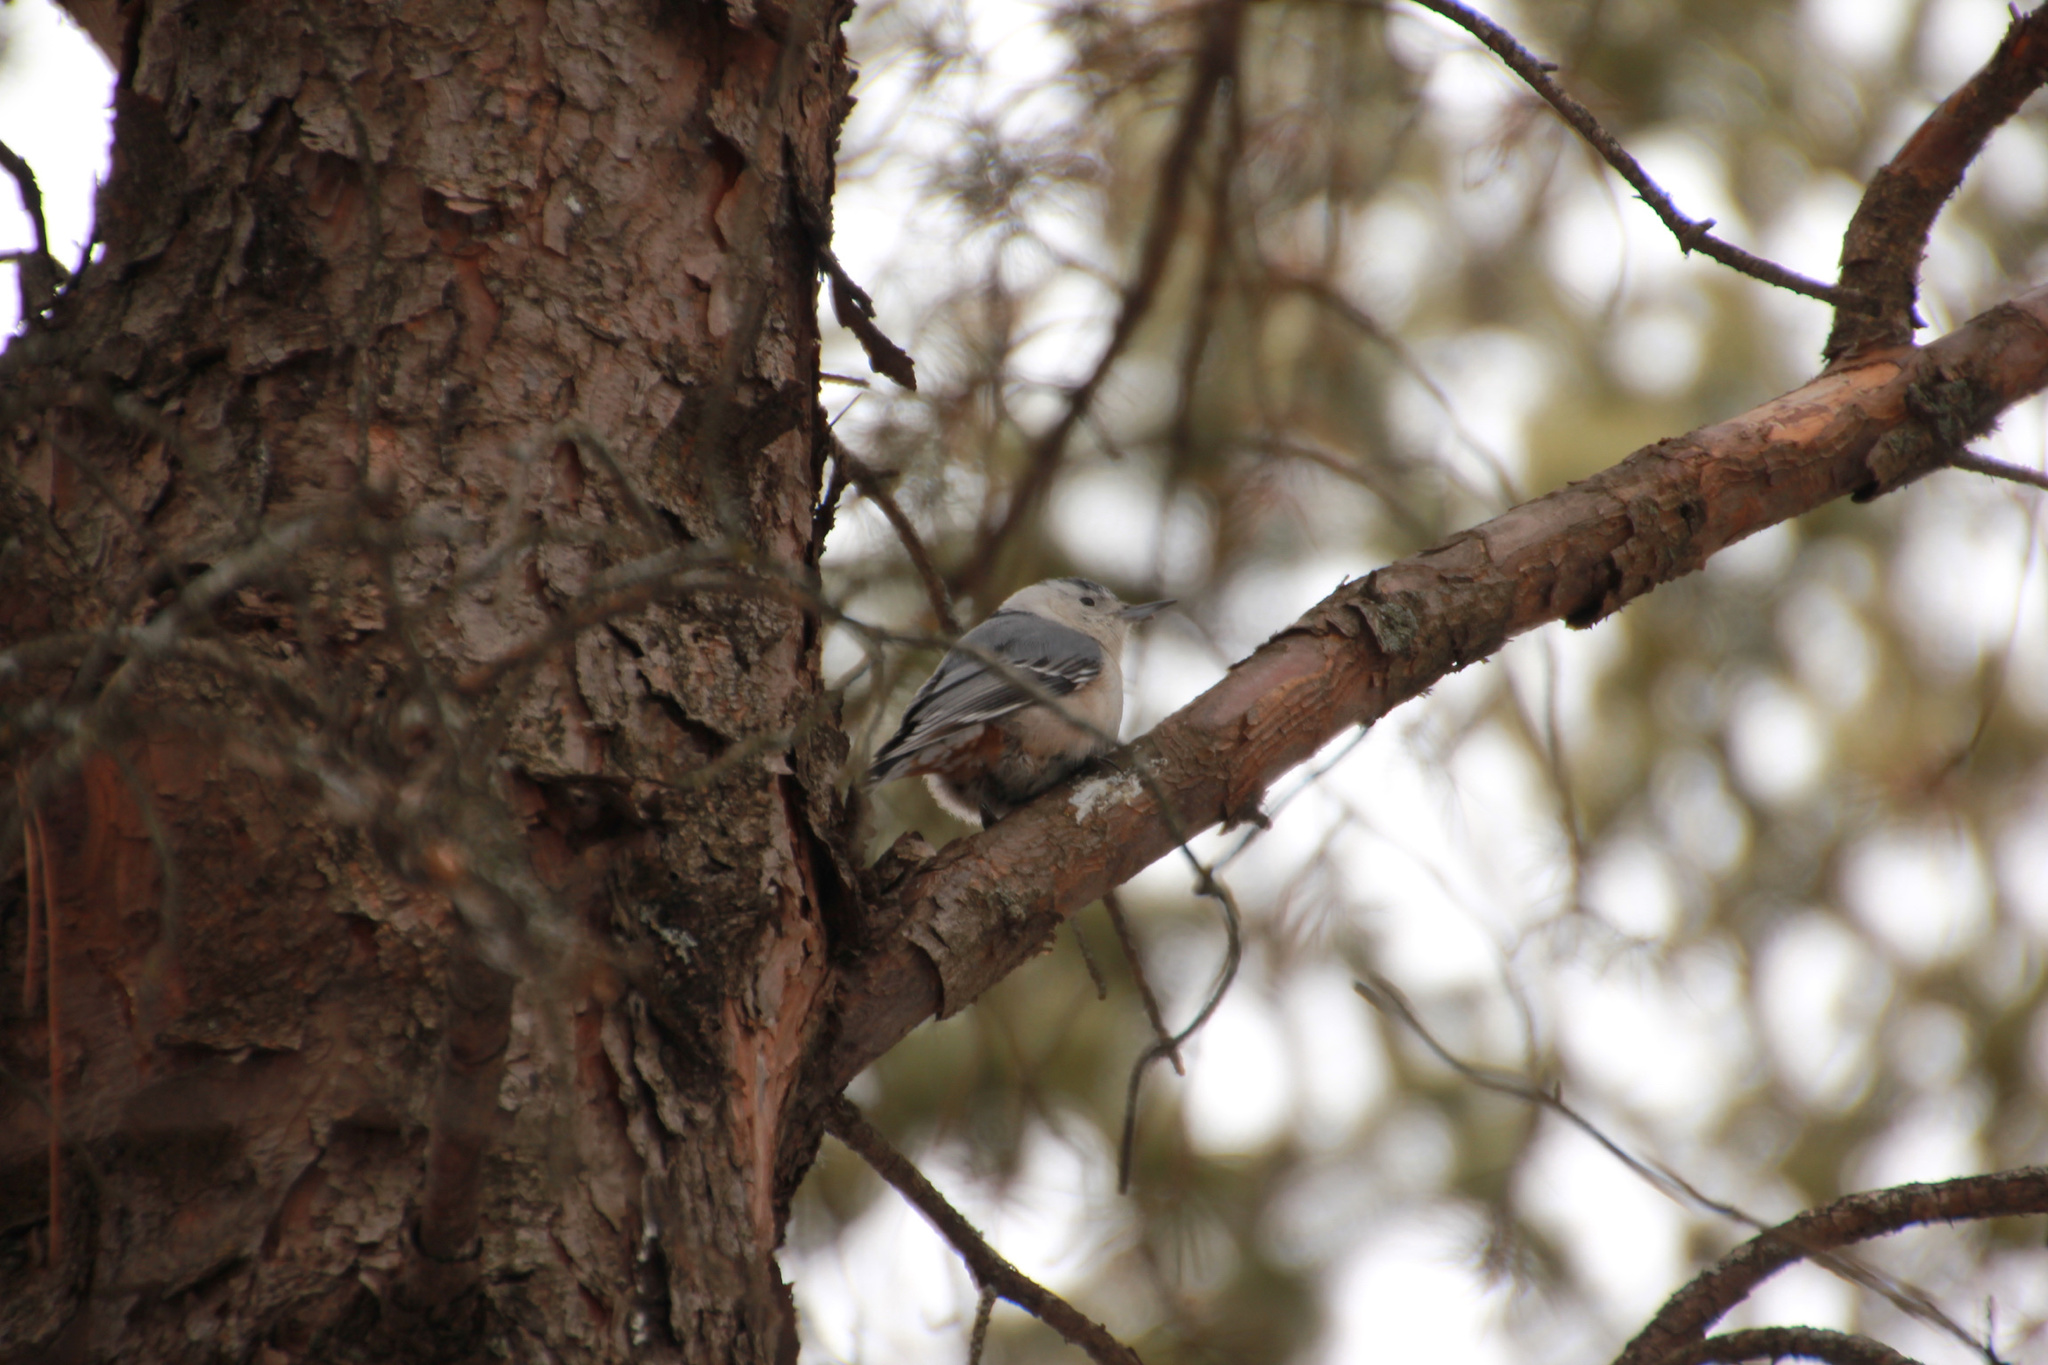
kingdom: Animalia
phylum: Chordata
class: Aves
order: Passeriformes
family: Sittidae
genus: Sitta
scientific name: Sitta carolinensis
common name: White-breasted nuthatch
